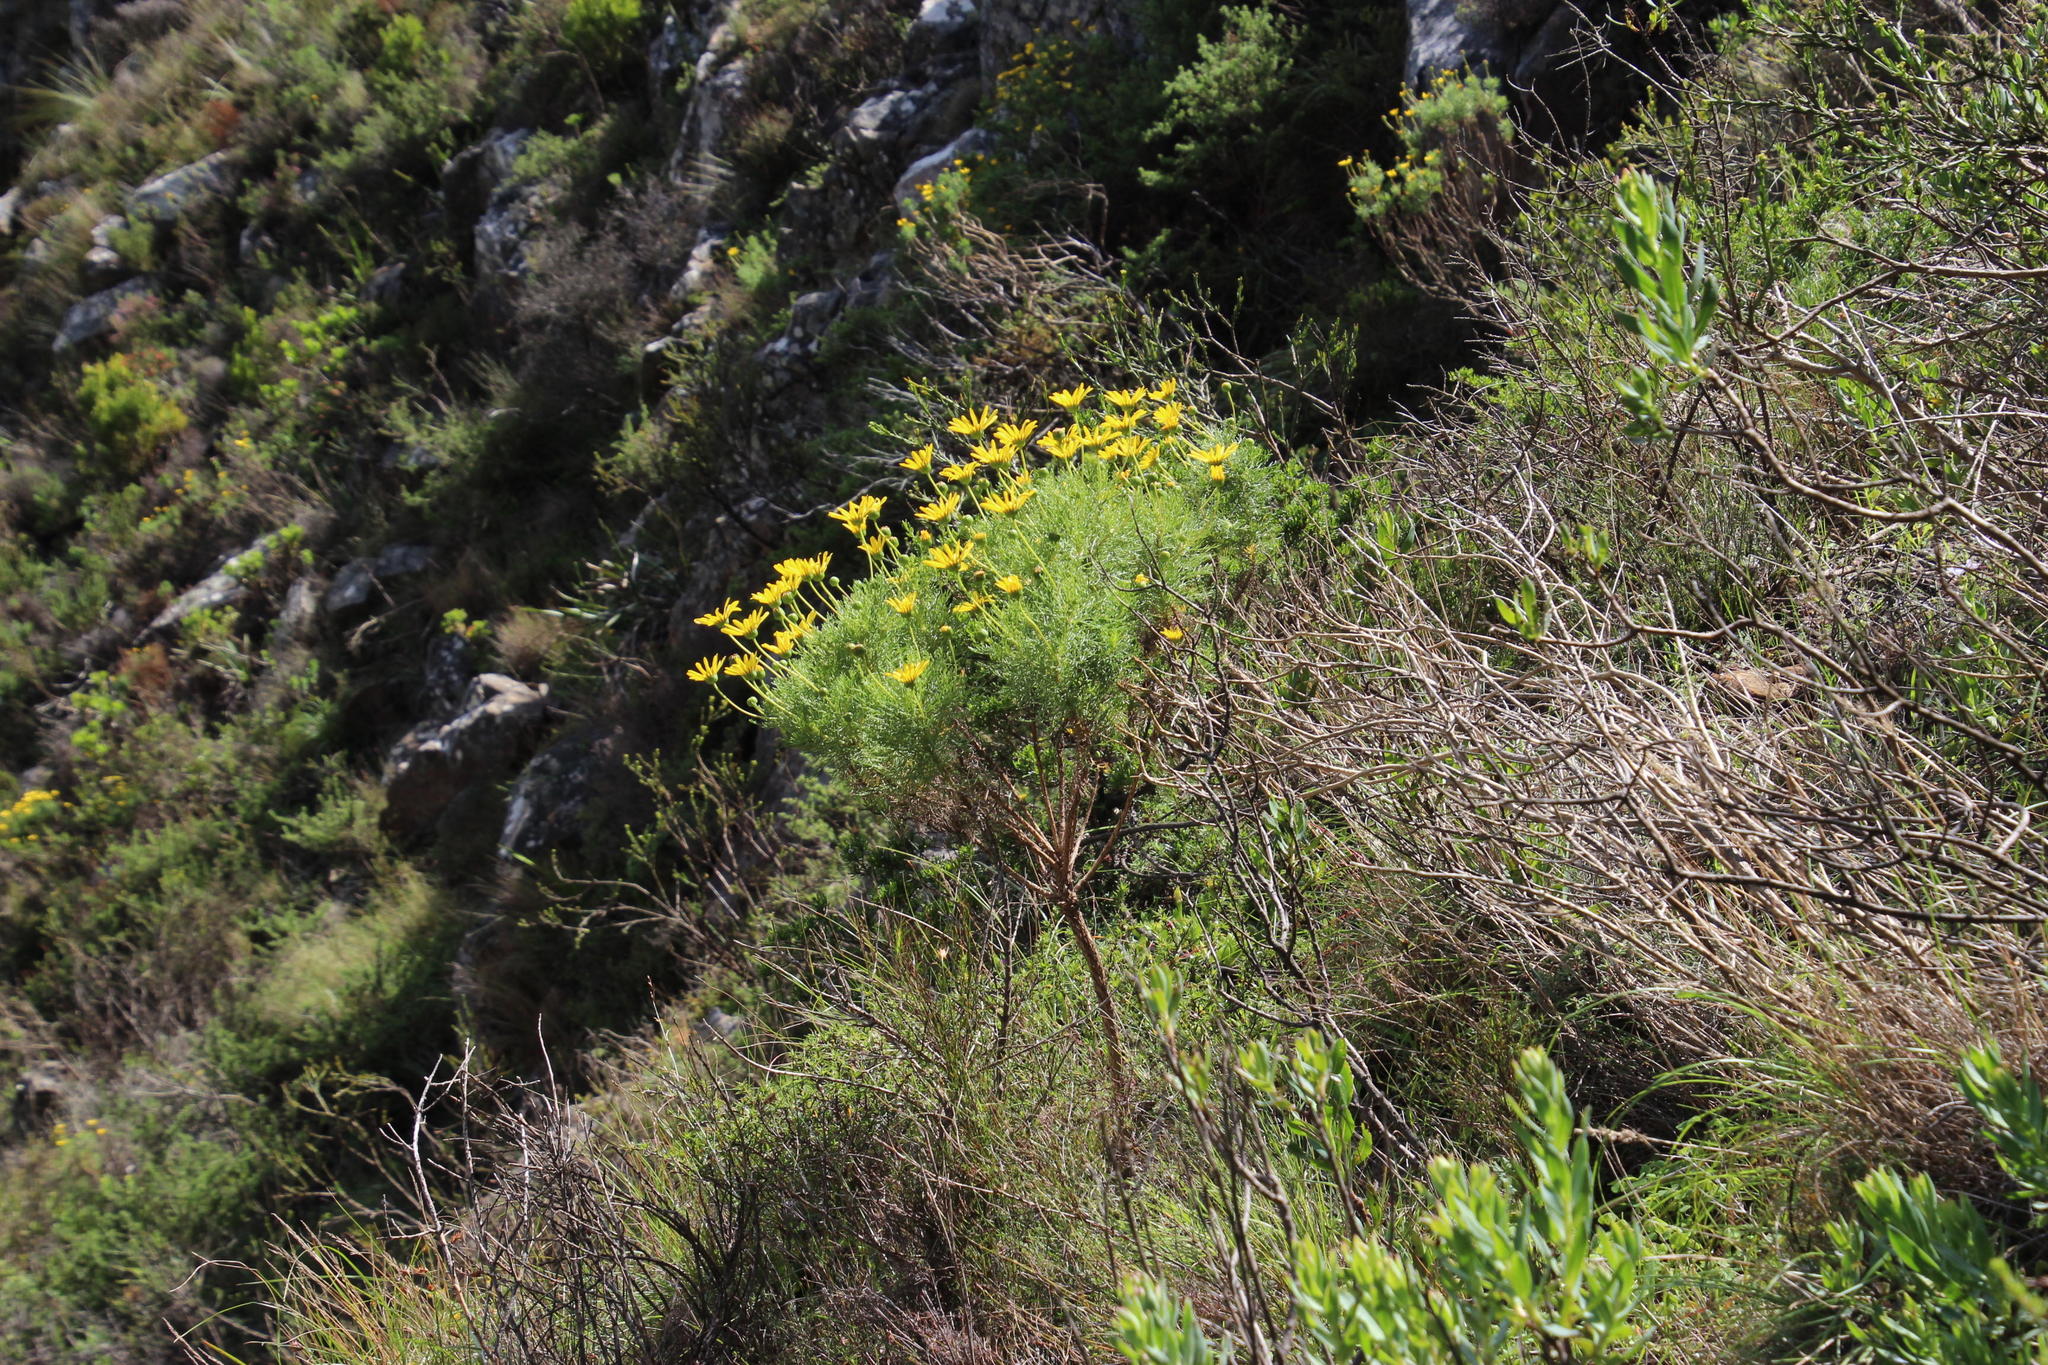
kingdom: Plantae
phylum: Tracheophyta
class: Magnoliopsida
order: Asterales
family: Asteraceae
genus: Euryops
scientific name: Euryops abrotanifolius
